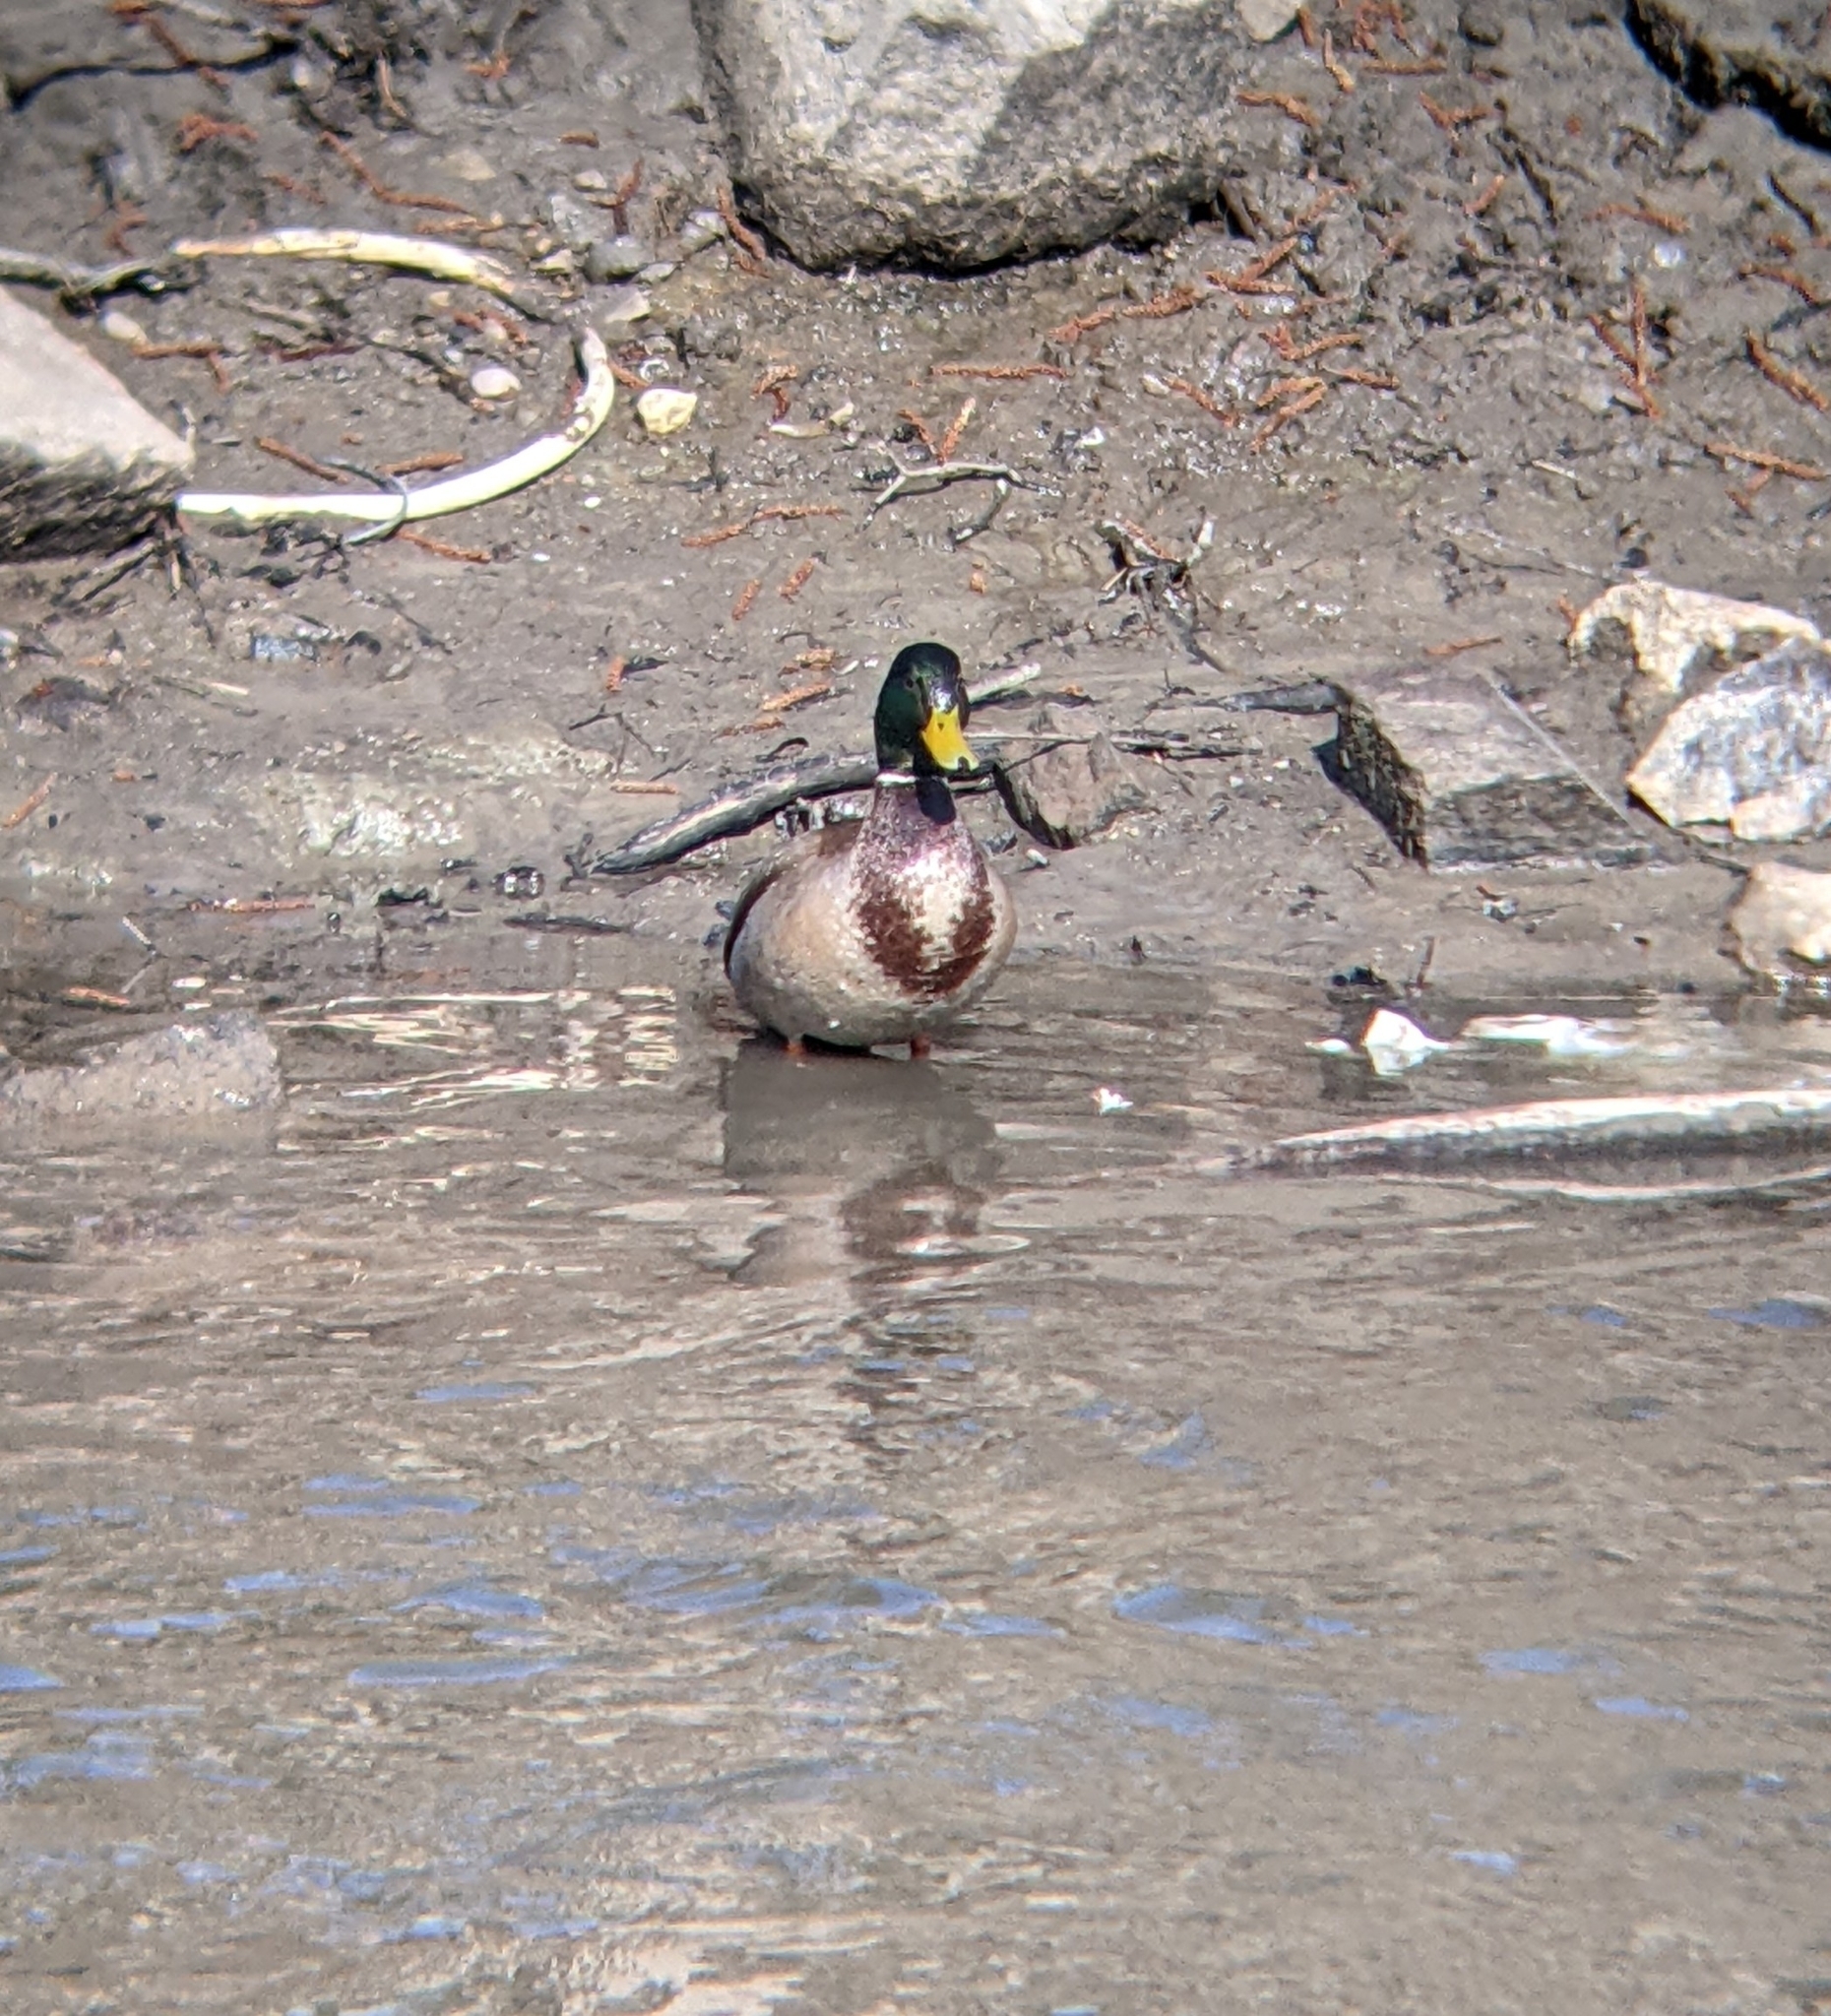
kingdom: Animalia
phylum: Chordata
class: Aves
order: Anseriformes
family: Anatidae
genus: Anas
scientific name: Anas platyrhynchos
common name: Mallard
